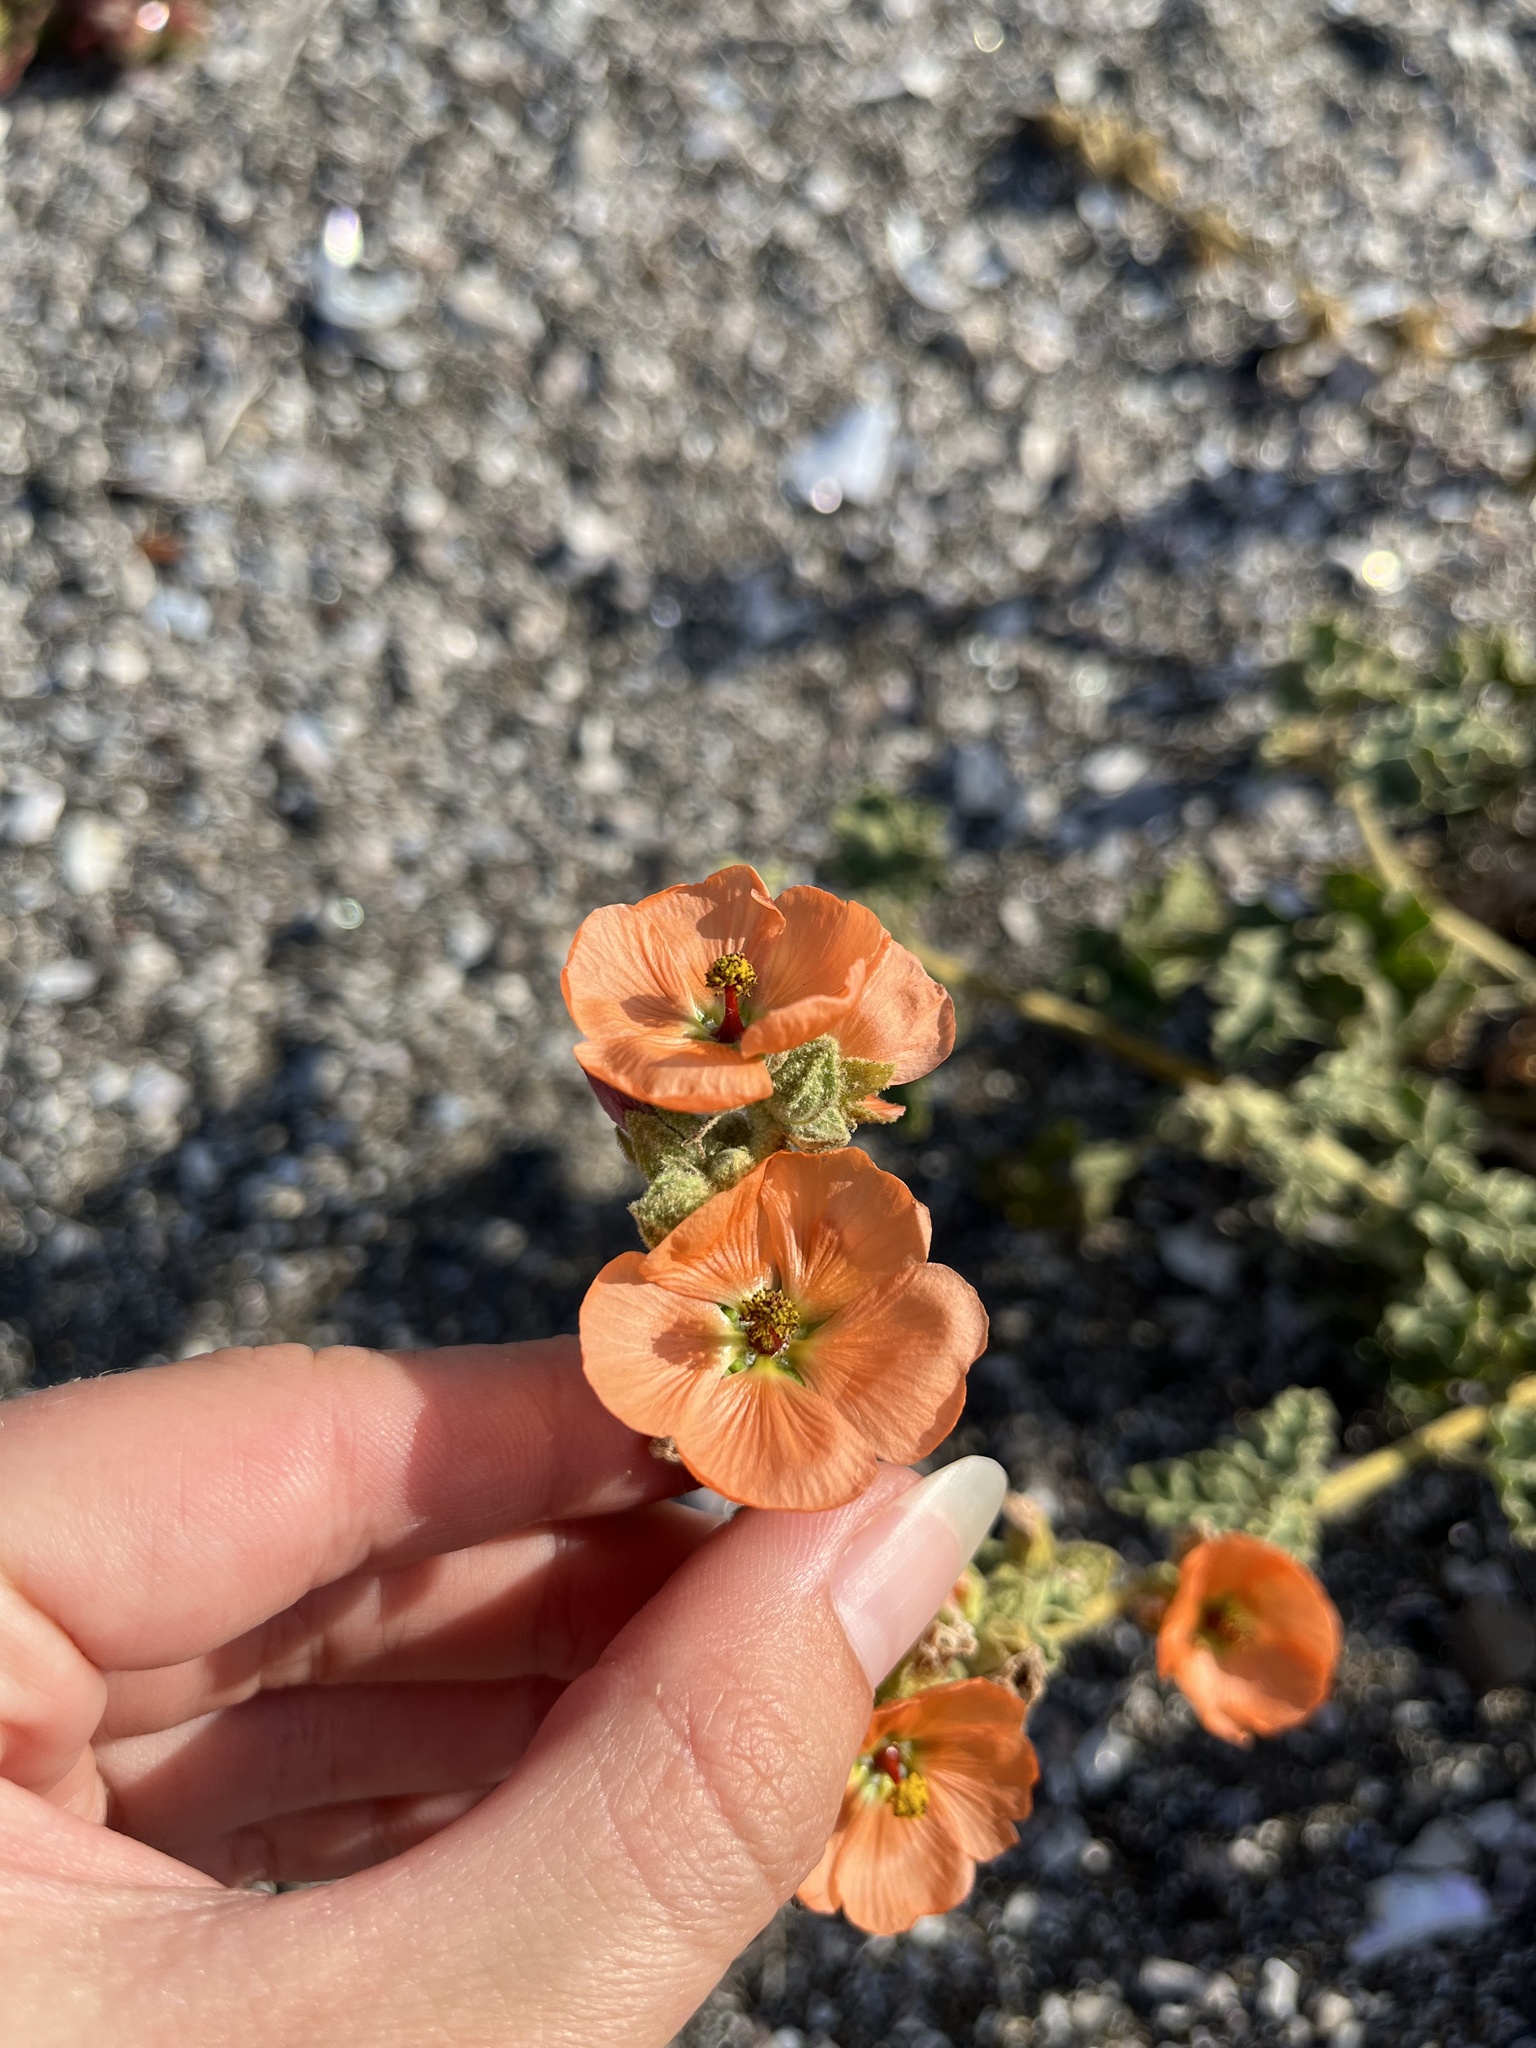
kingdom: Plantae
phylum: Tracheophyta
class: Magnoliopsida
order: Malvales
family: Malvaceae
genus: Sphaeralcea
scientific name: Sphaeralcea ambigua
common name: Apricot globe-mallow
